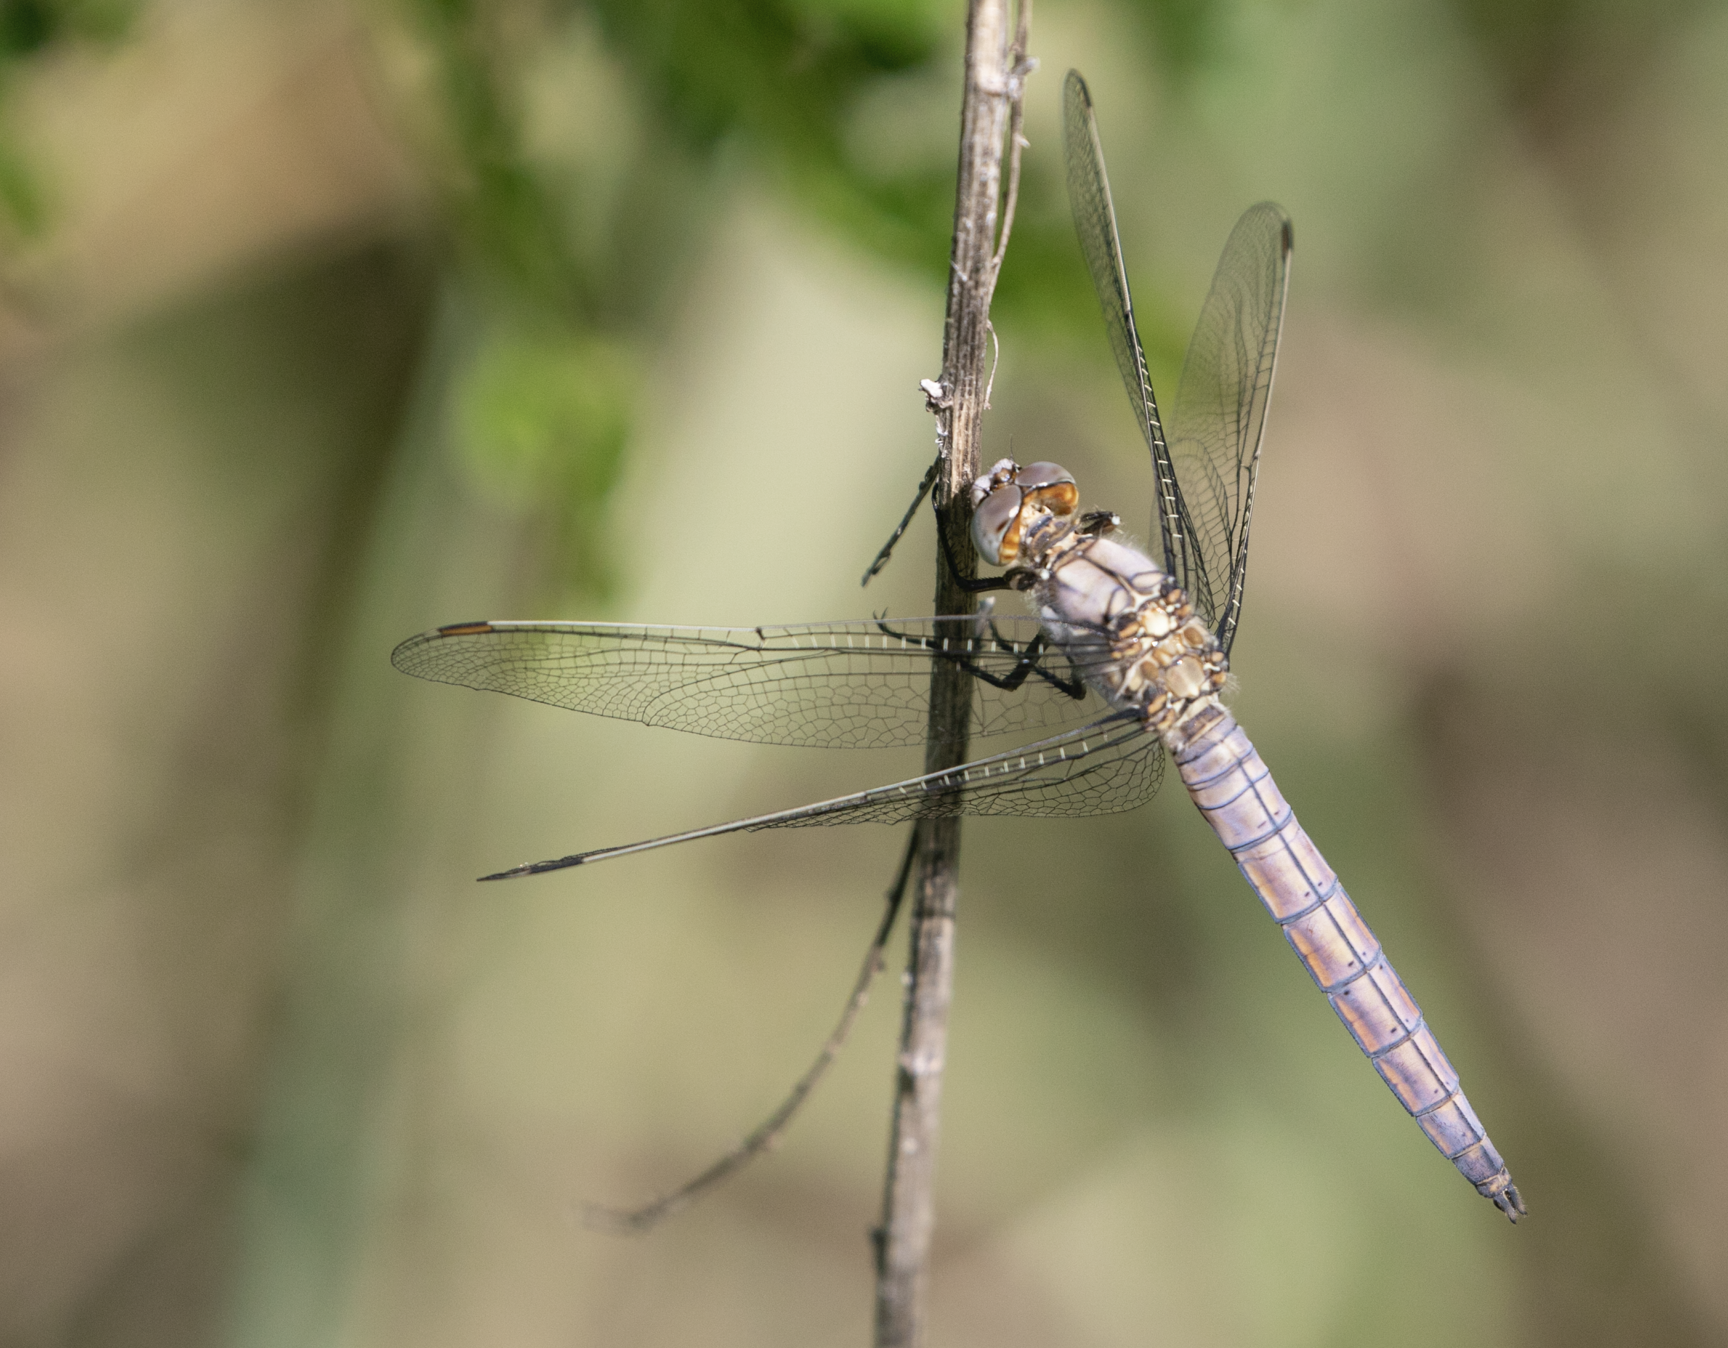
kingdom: Animalia
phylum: Arthropoda
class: Insecta
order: Odonata
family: Libellulidae
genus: Orthetrum
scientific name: Orthetrum brunneum
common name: Southern skimmer
